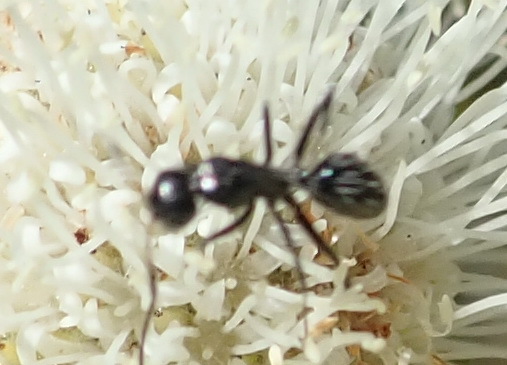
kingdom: Animalia
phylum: Arthropoda
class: Insecta
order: Hymenoptera
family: Formicidae
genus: Camponotus
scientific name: Camponotus niveosetosus
